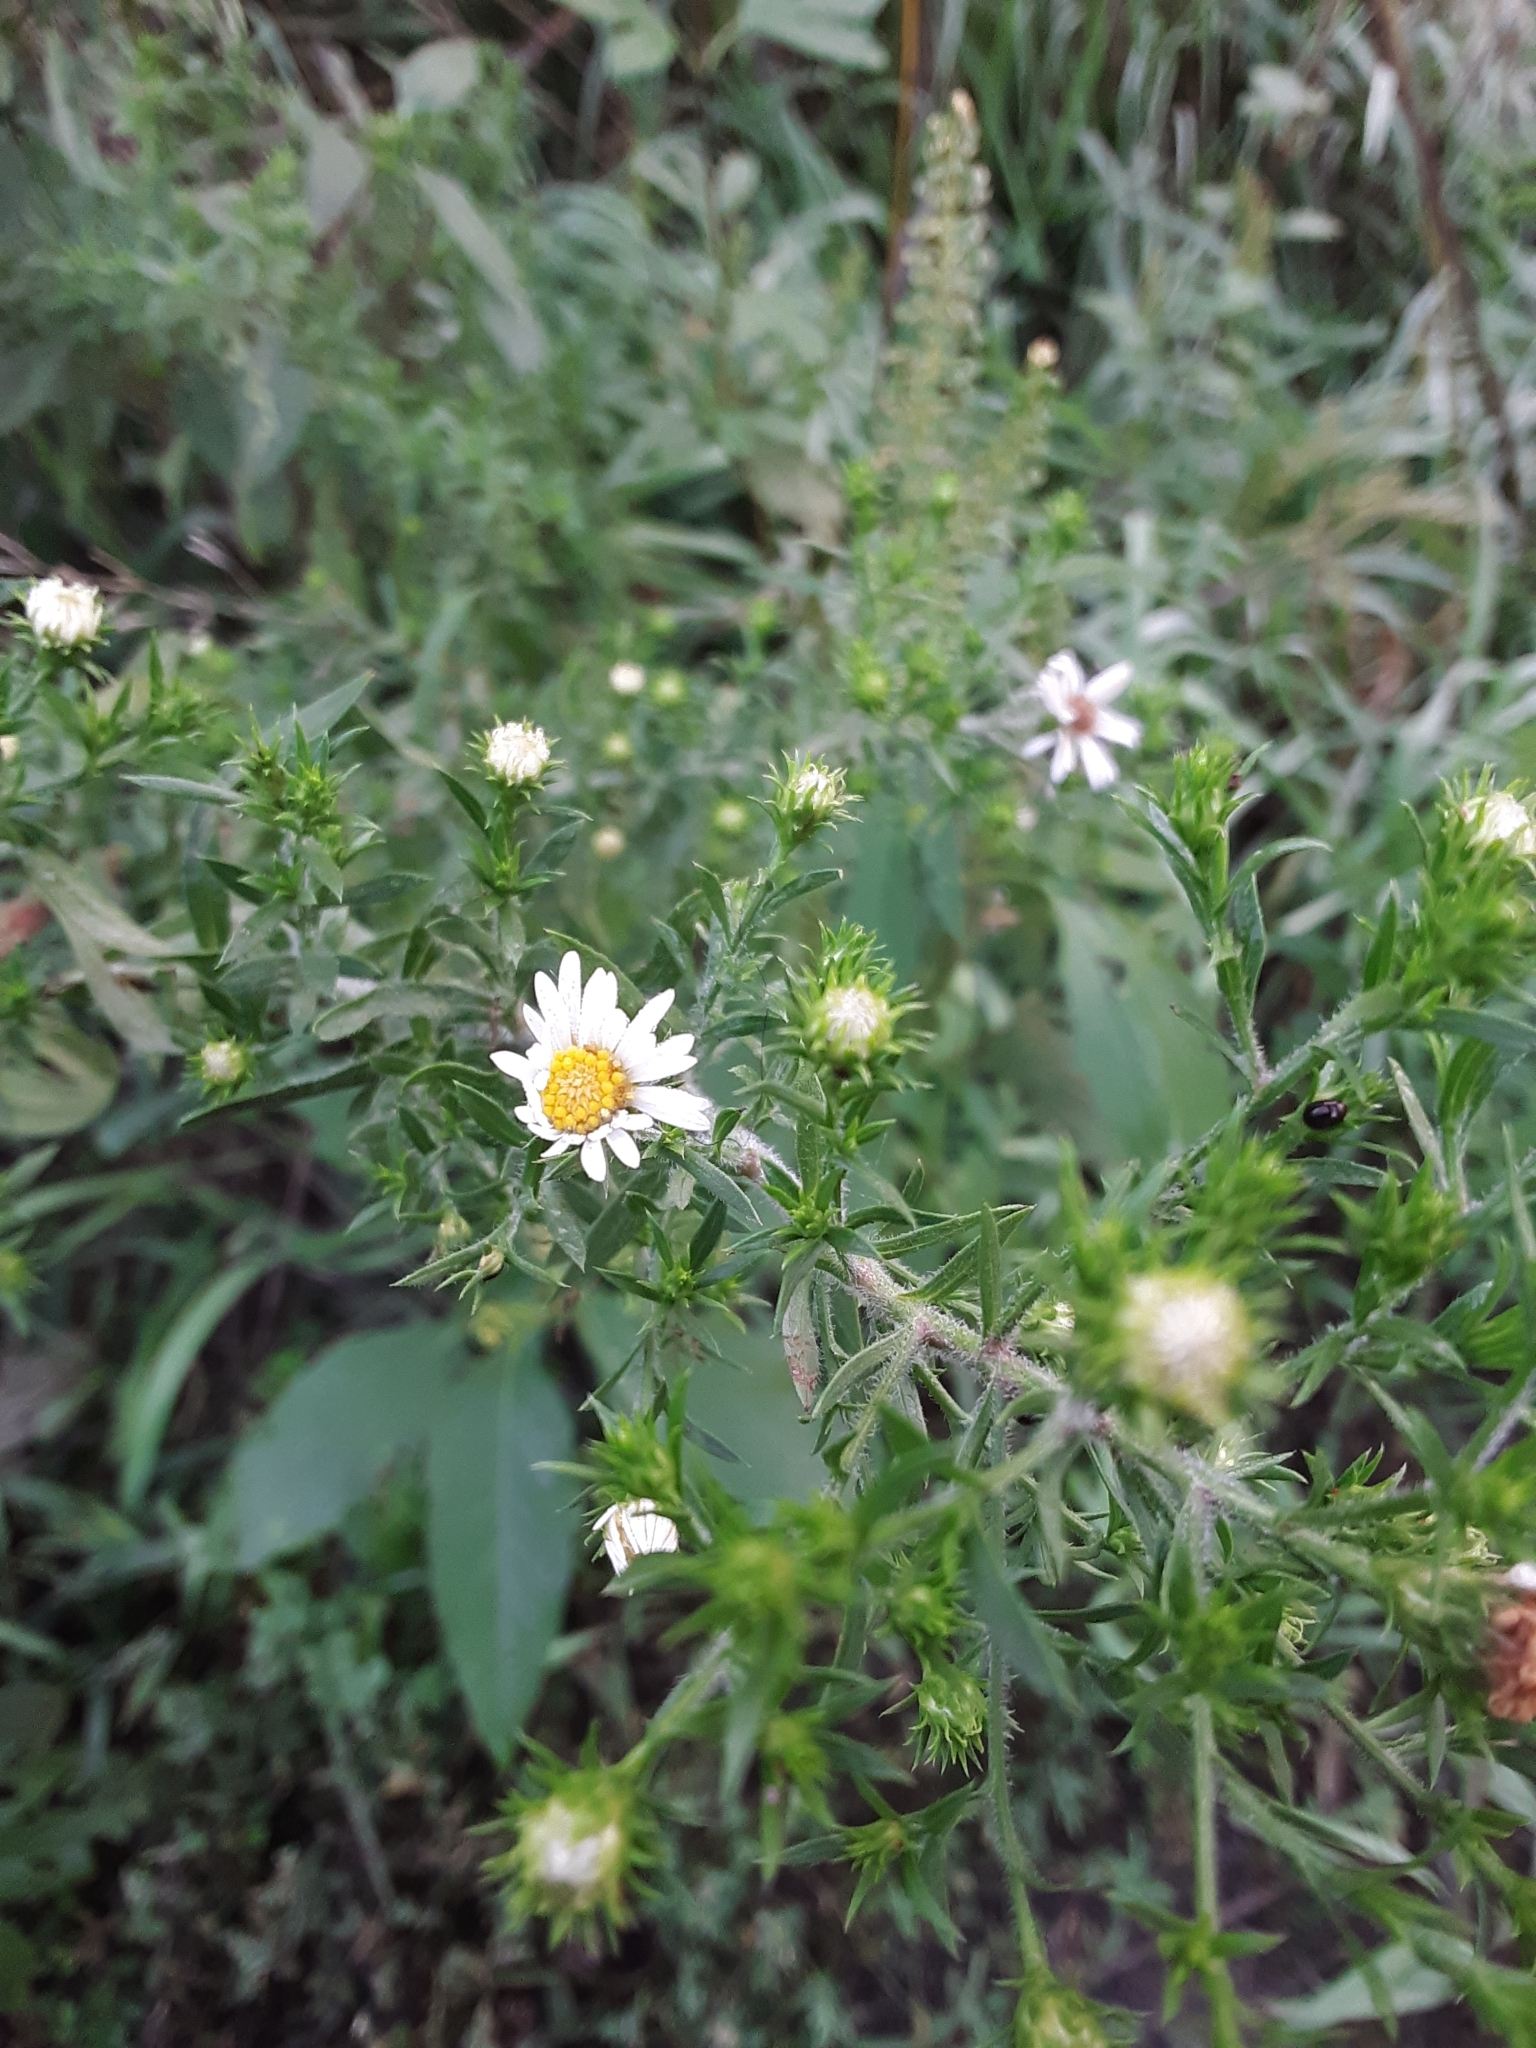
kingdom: Plantae
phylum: Tracheophyta
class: Magnoliopsida
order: Asterales
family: Asteraceae
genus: Symphyotrichum
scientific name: Symphyotrichum pilosum
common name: Awl aster
